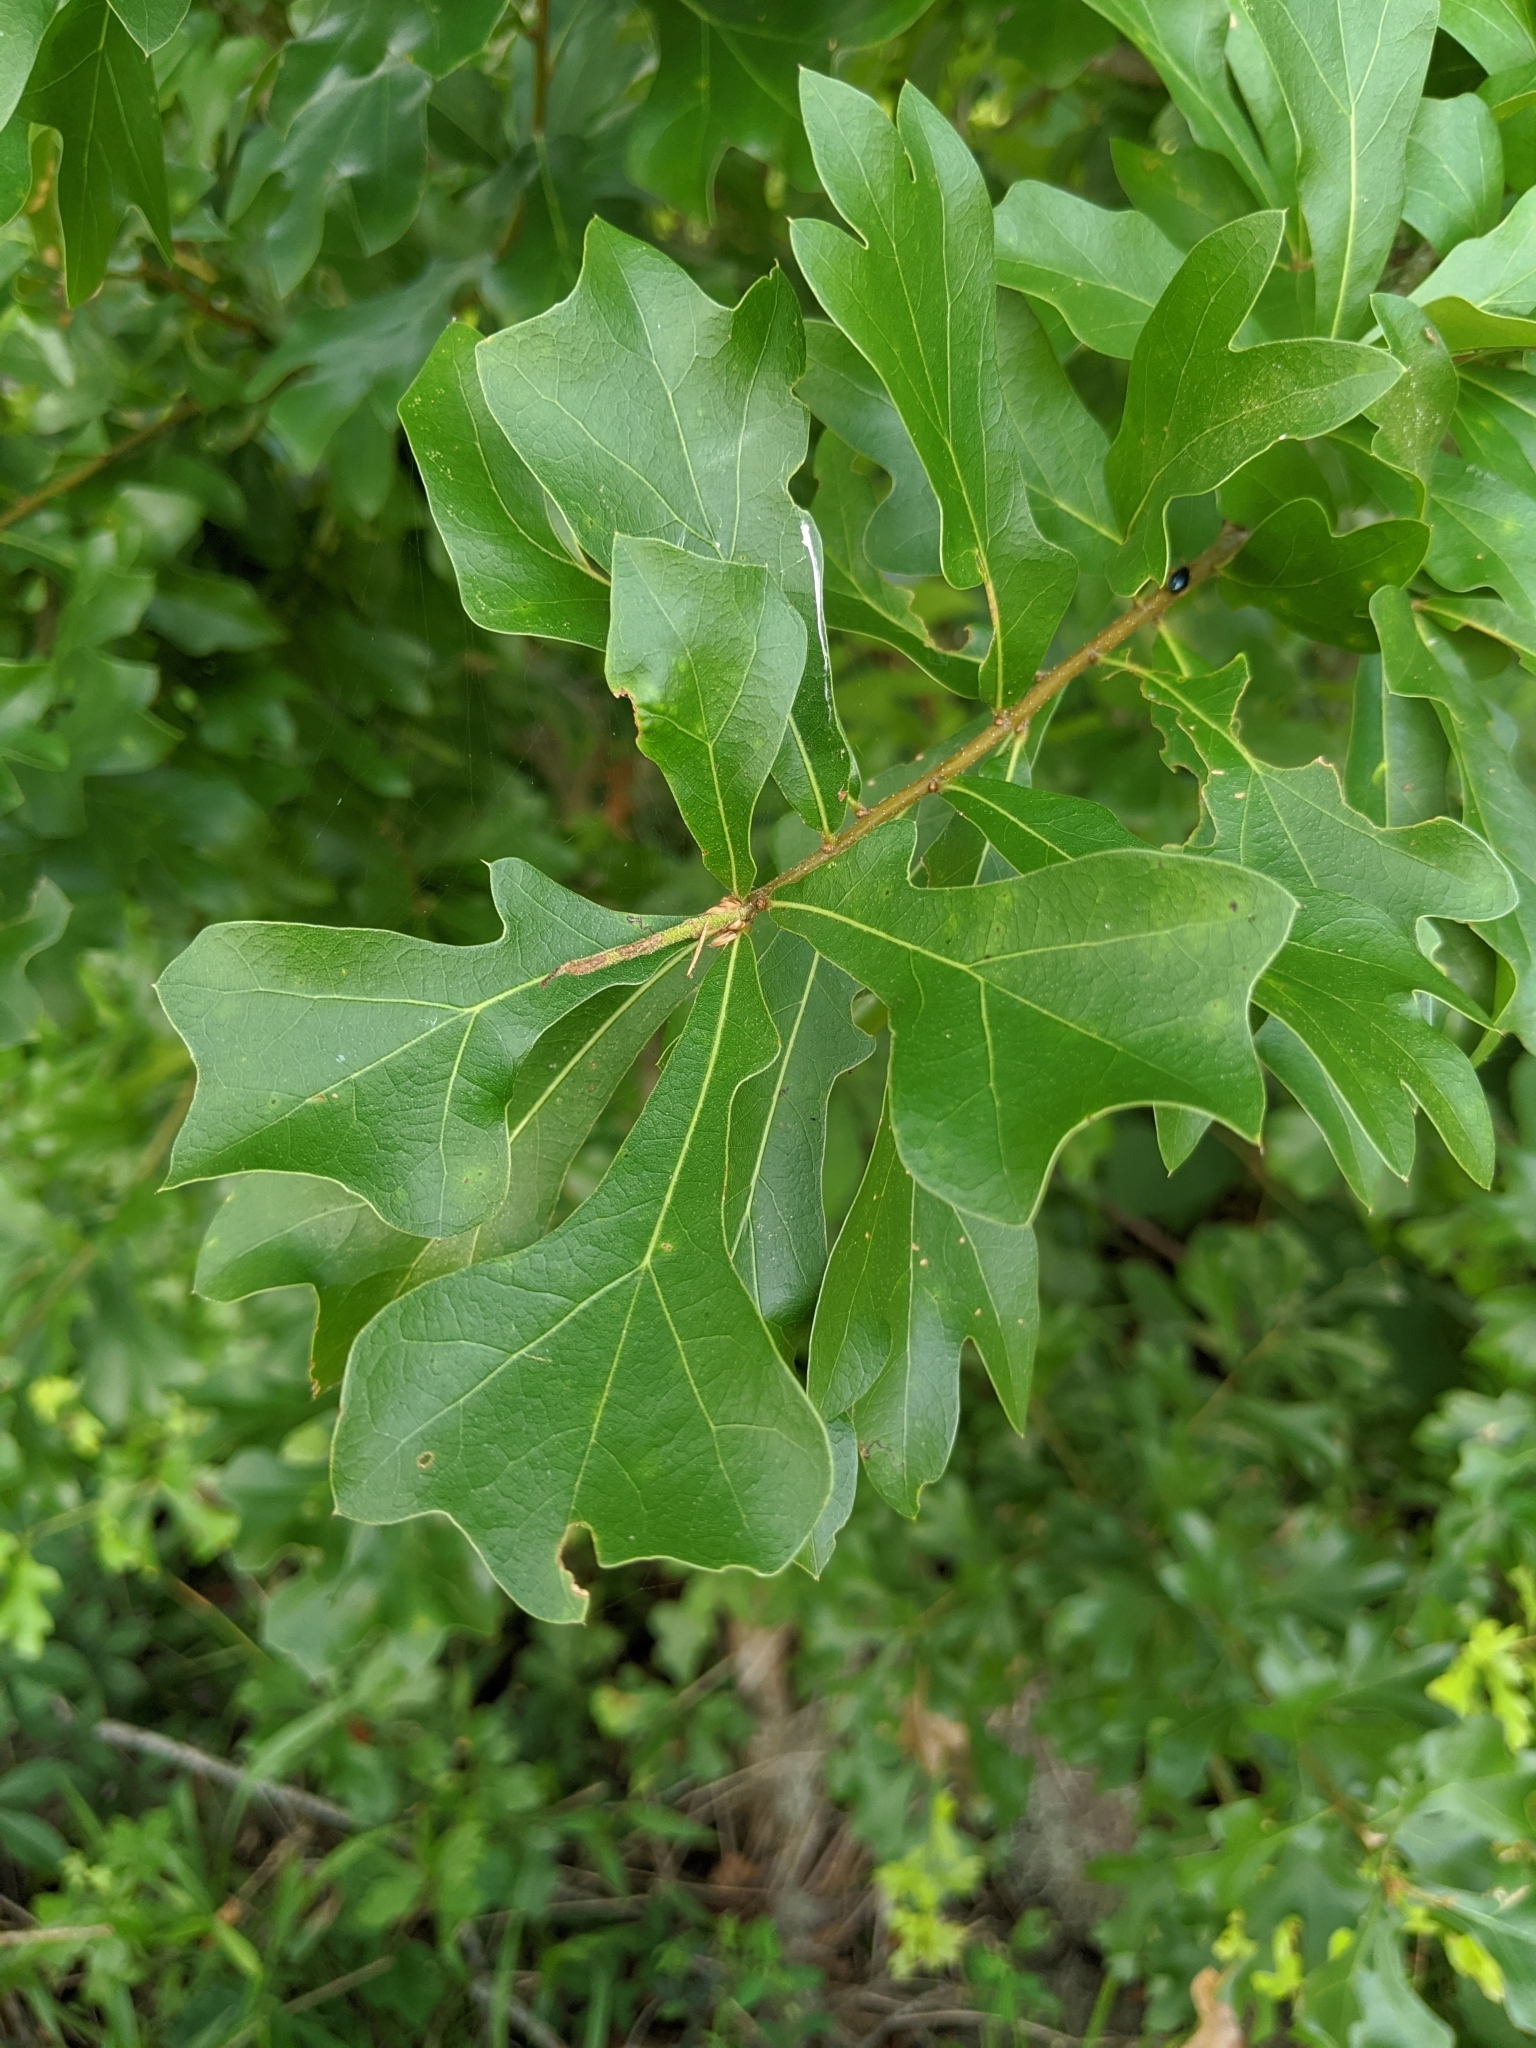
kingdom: Plantae
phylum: Tracheophyta
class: Magnoliopsida
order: Fagales
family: Fagaceae
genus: Quercus
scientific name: Quercus nigra
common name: Water oak
